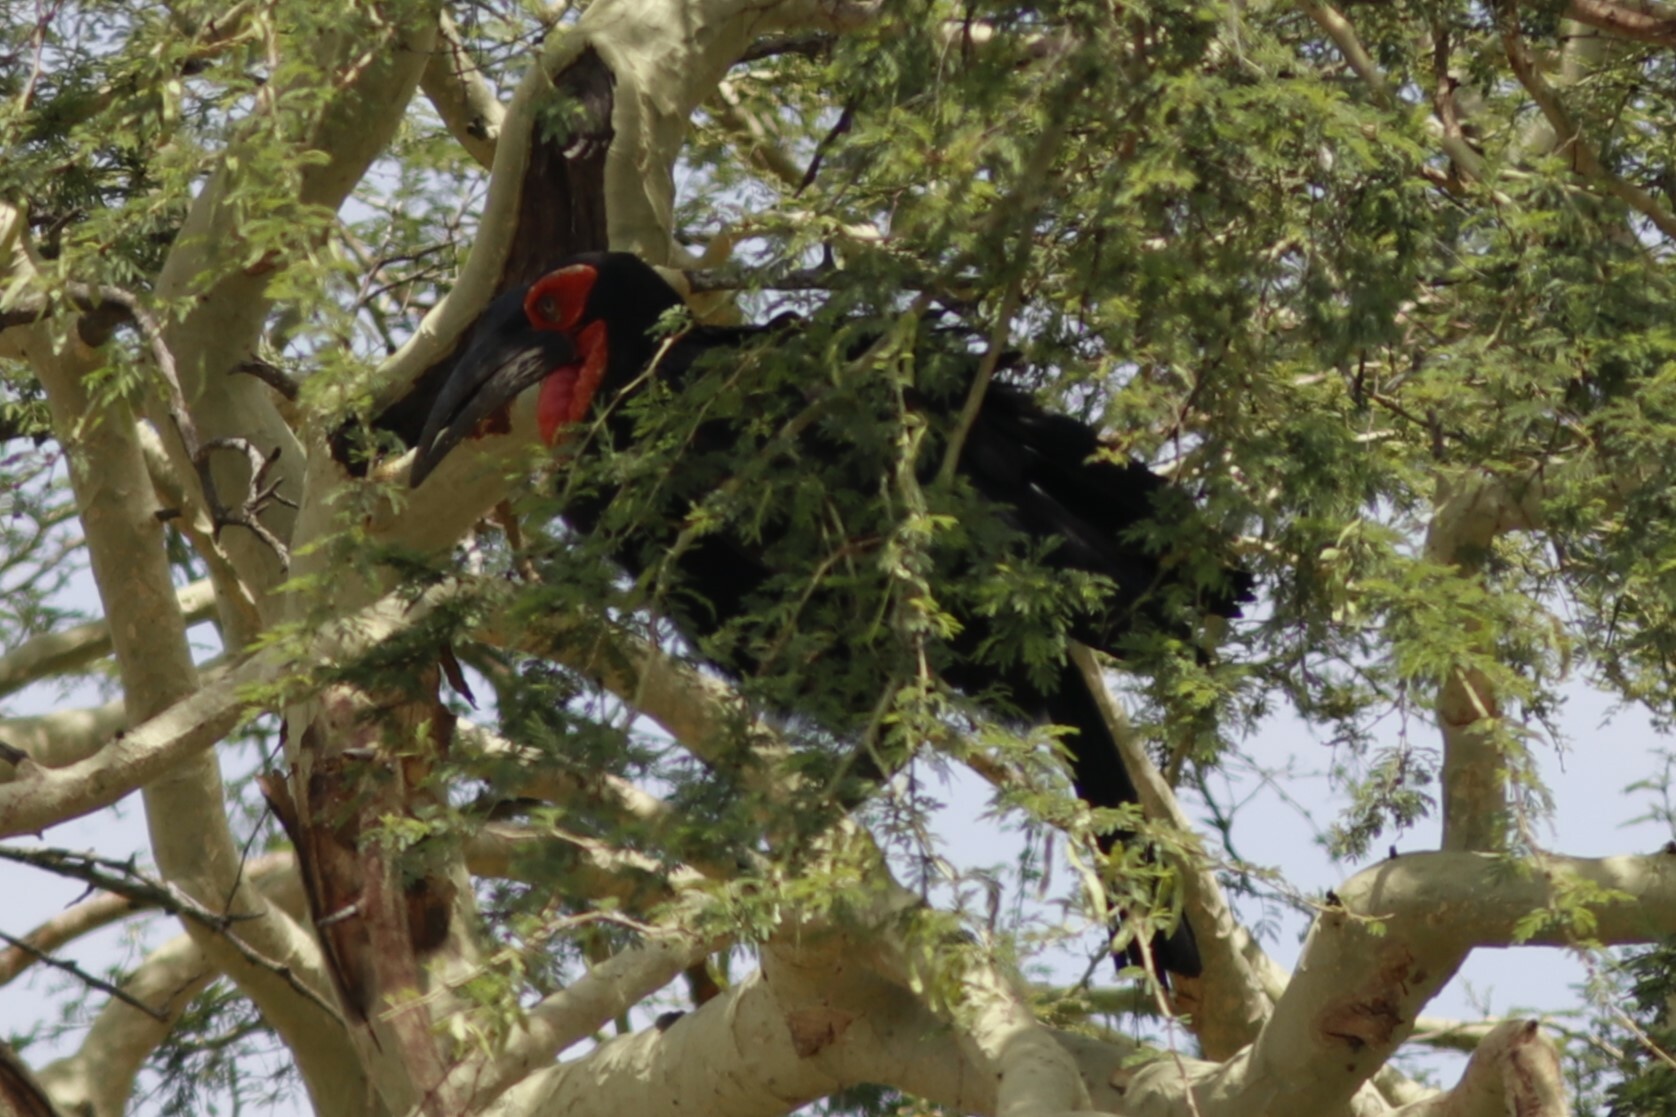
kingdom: Animalia
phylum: Chordata
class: Aves
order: Bucerotiformes
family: Bucorvidae
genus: Bucorvus
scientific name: Bucorvus leadbeateri
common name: Southern ground-hornbill
